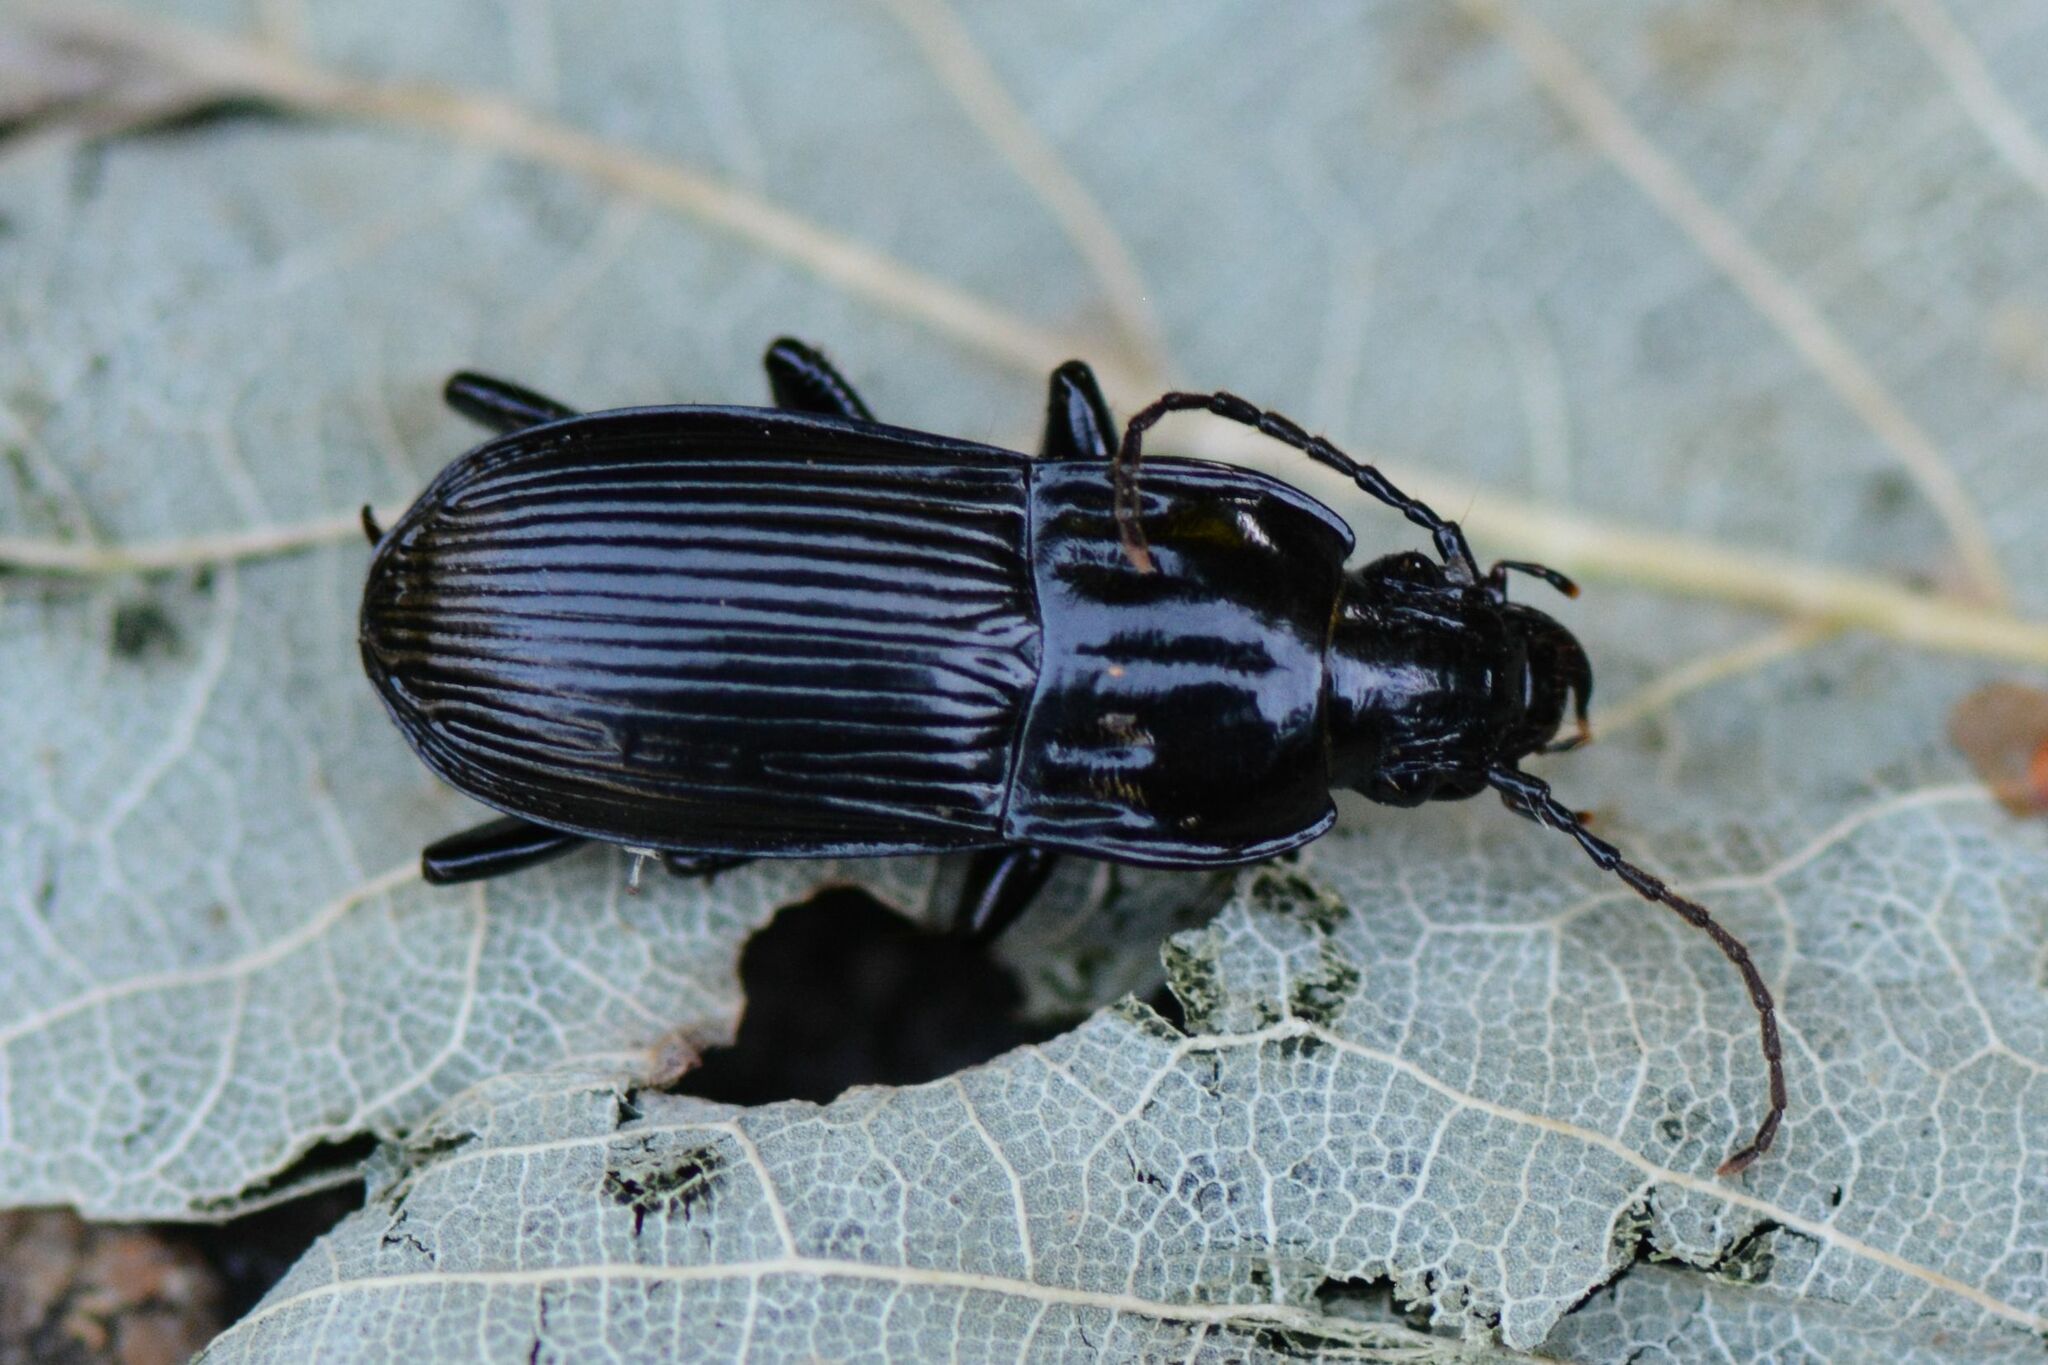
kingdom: Animalia
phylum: Arthropoda
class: Insecta
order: Coleoptera
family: Carabidae
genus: Abax
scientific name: Abax parallelepipedus
